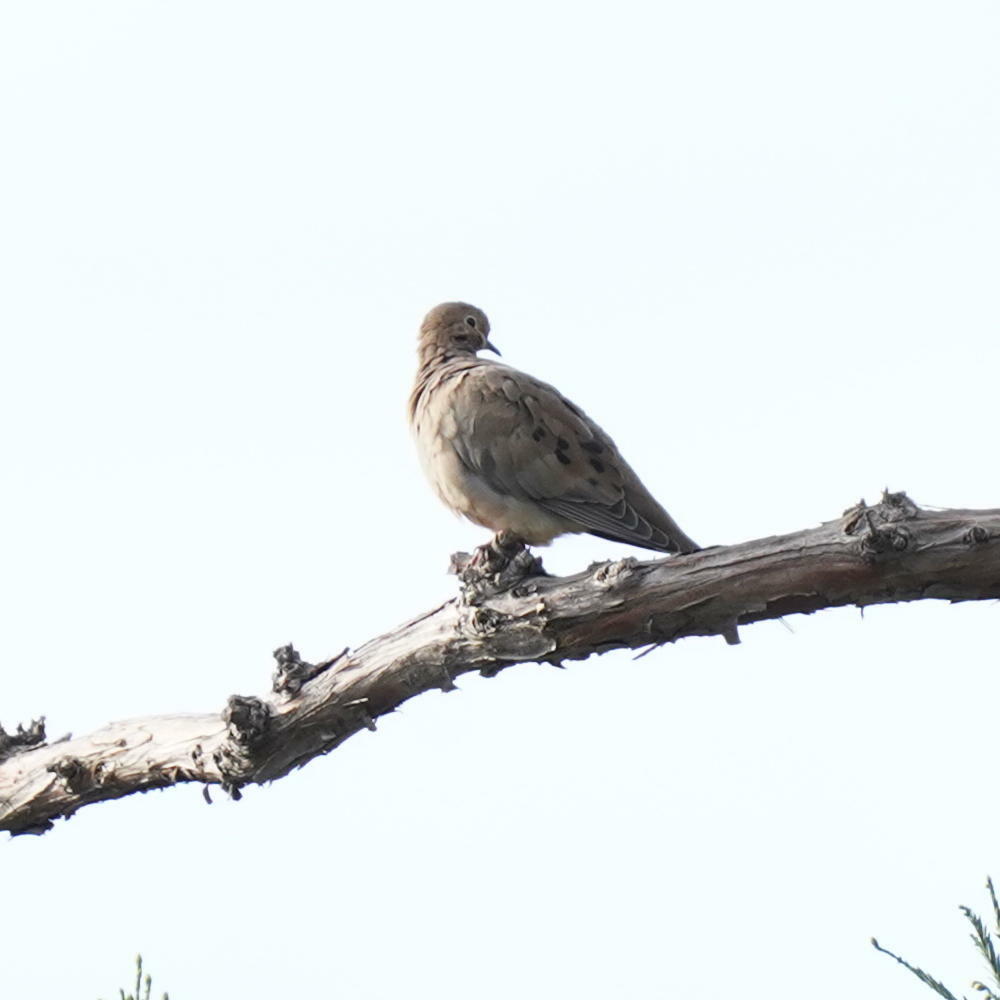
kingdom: Animalia
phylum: Chordata
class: Aves
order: Columbiformes
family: Columbidae
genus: Zenaida
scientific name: Zenaida macroura
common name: Mourning dove
